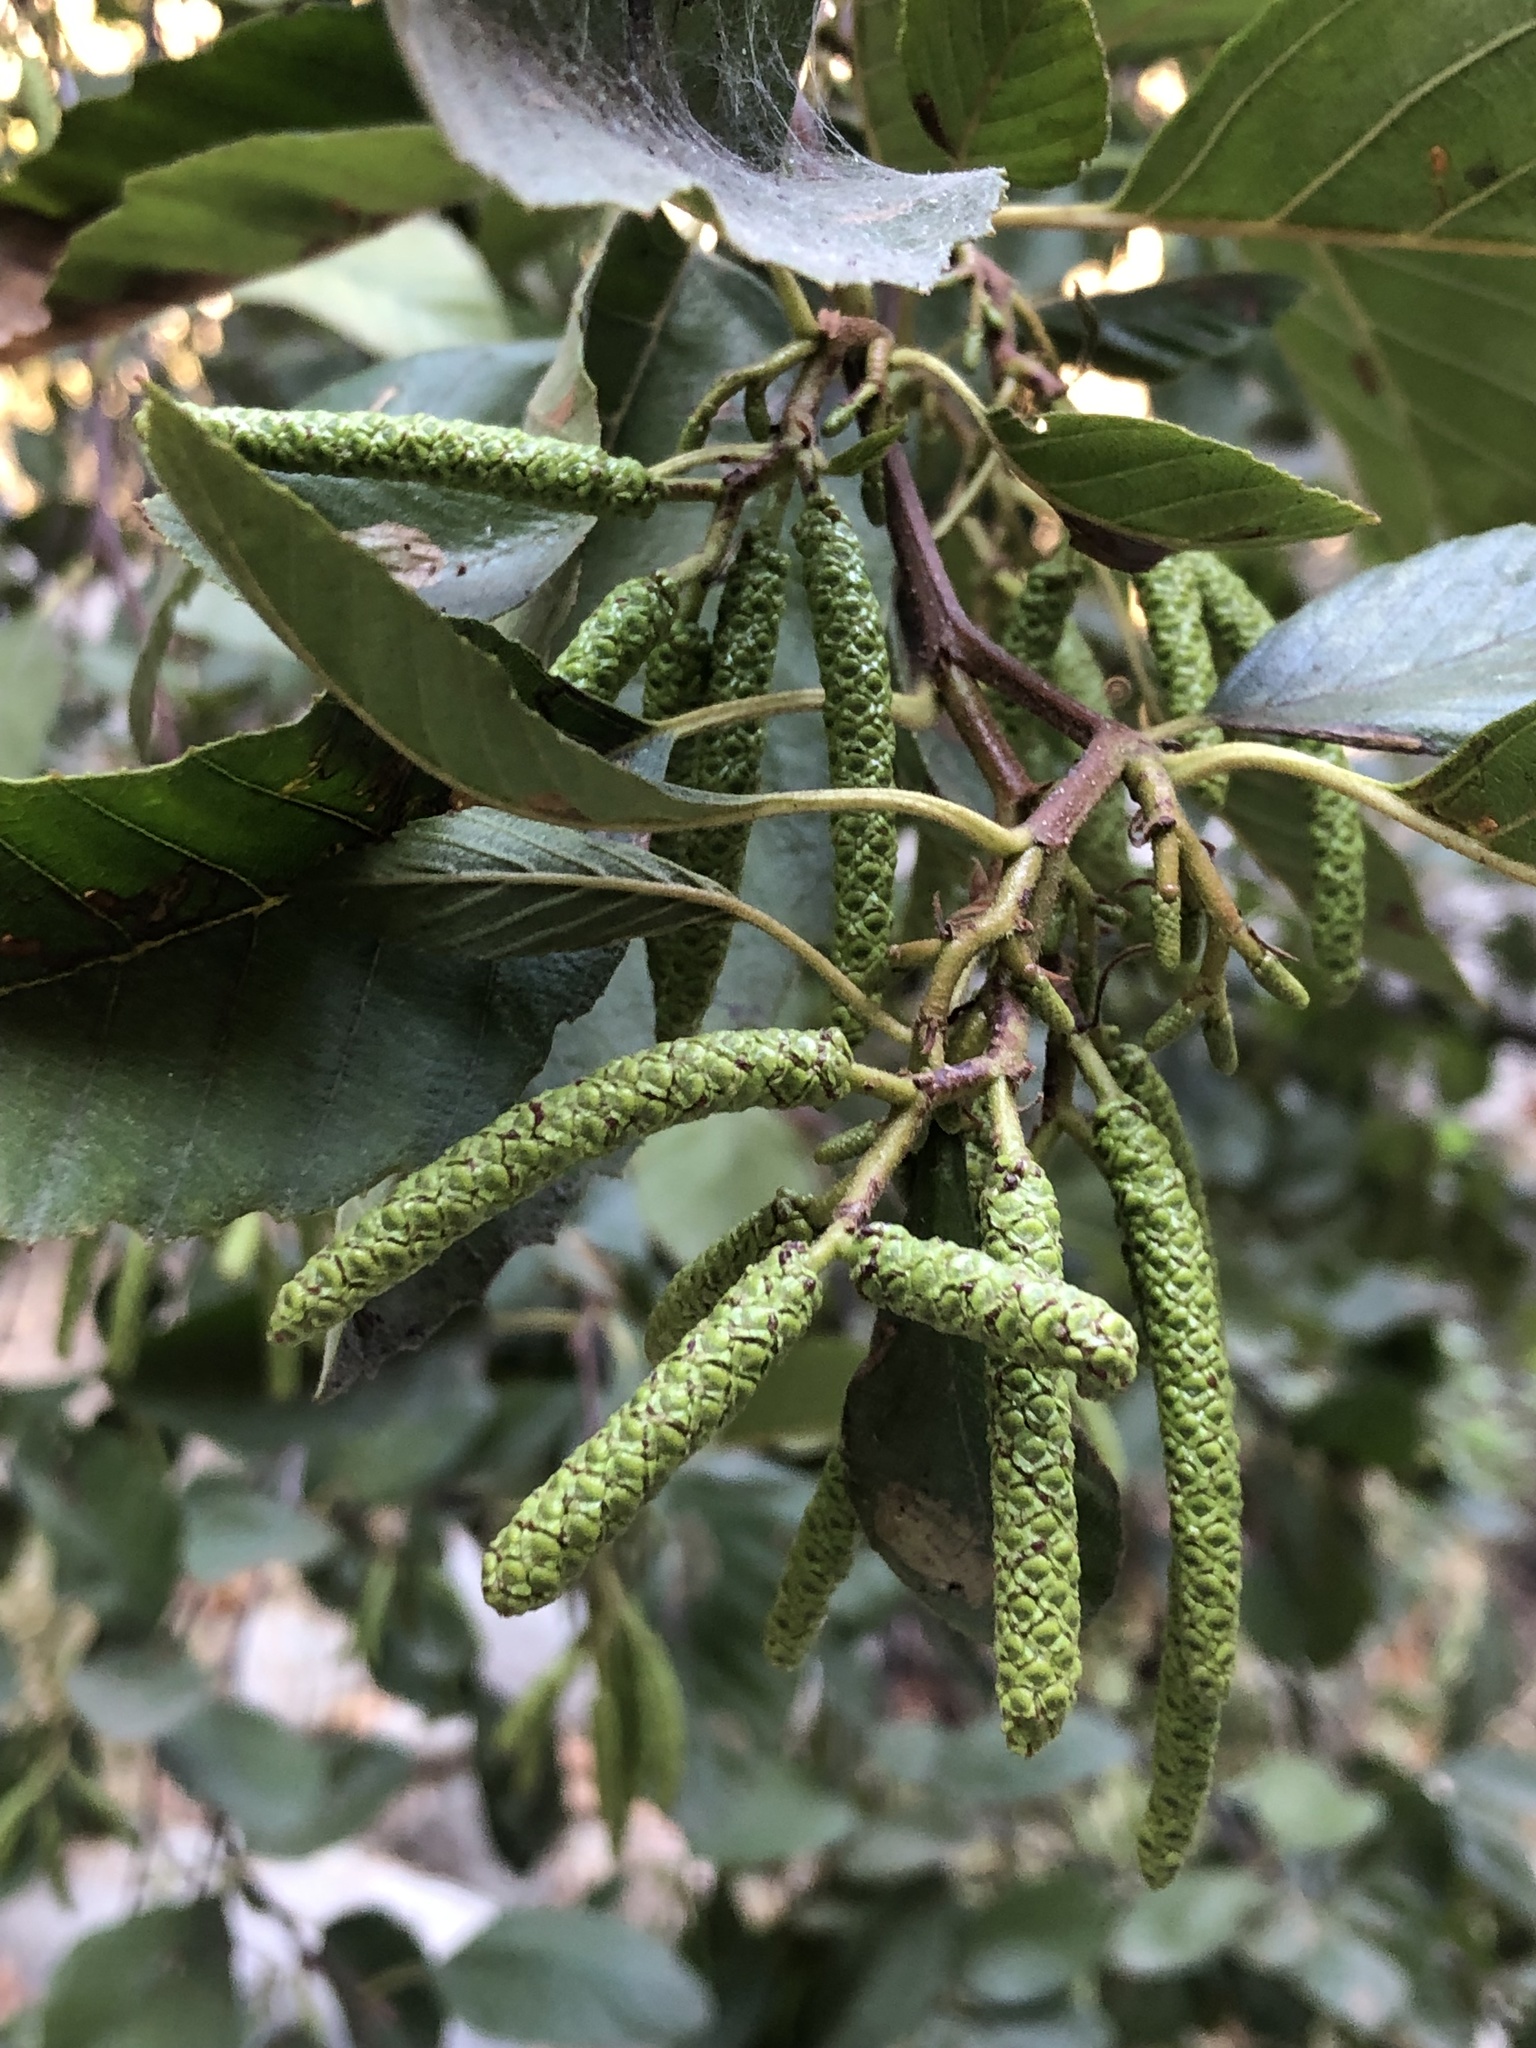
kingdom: Plantae
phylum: Tracheophyta
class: Magnoliopsida
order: Fagales
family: Betulaceae
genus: Alnus
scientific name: Alnus rhombifolia
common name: California alder
